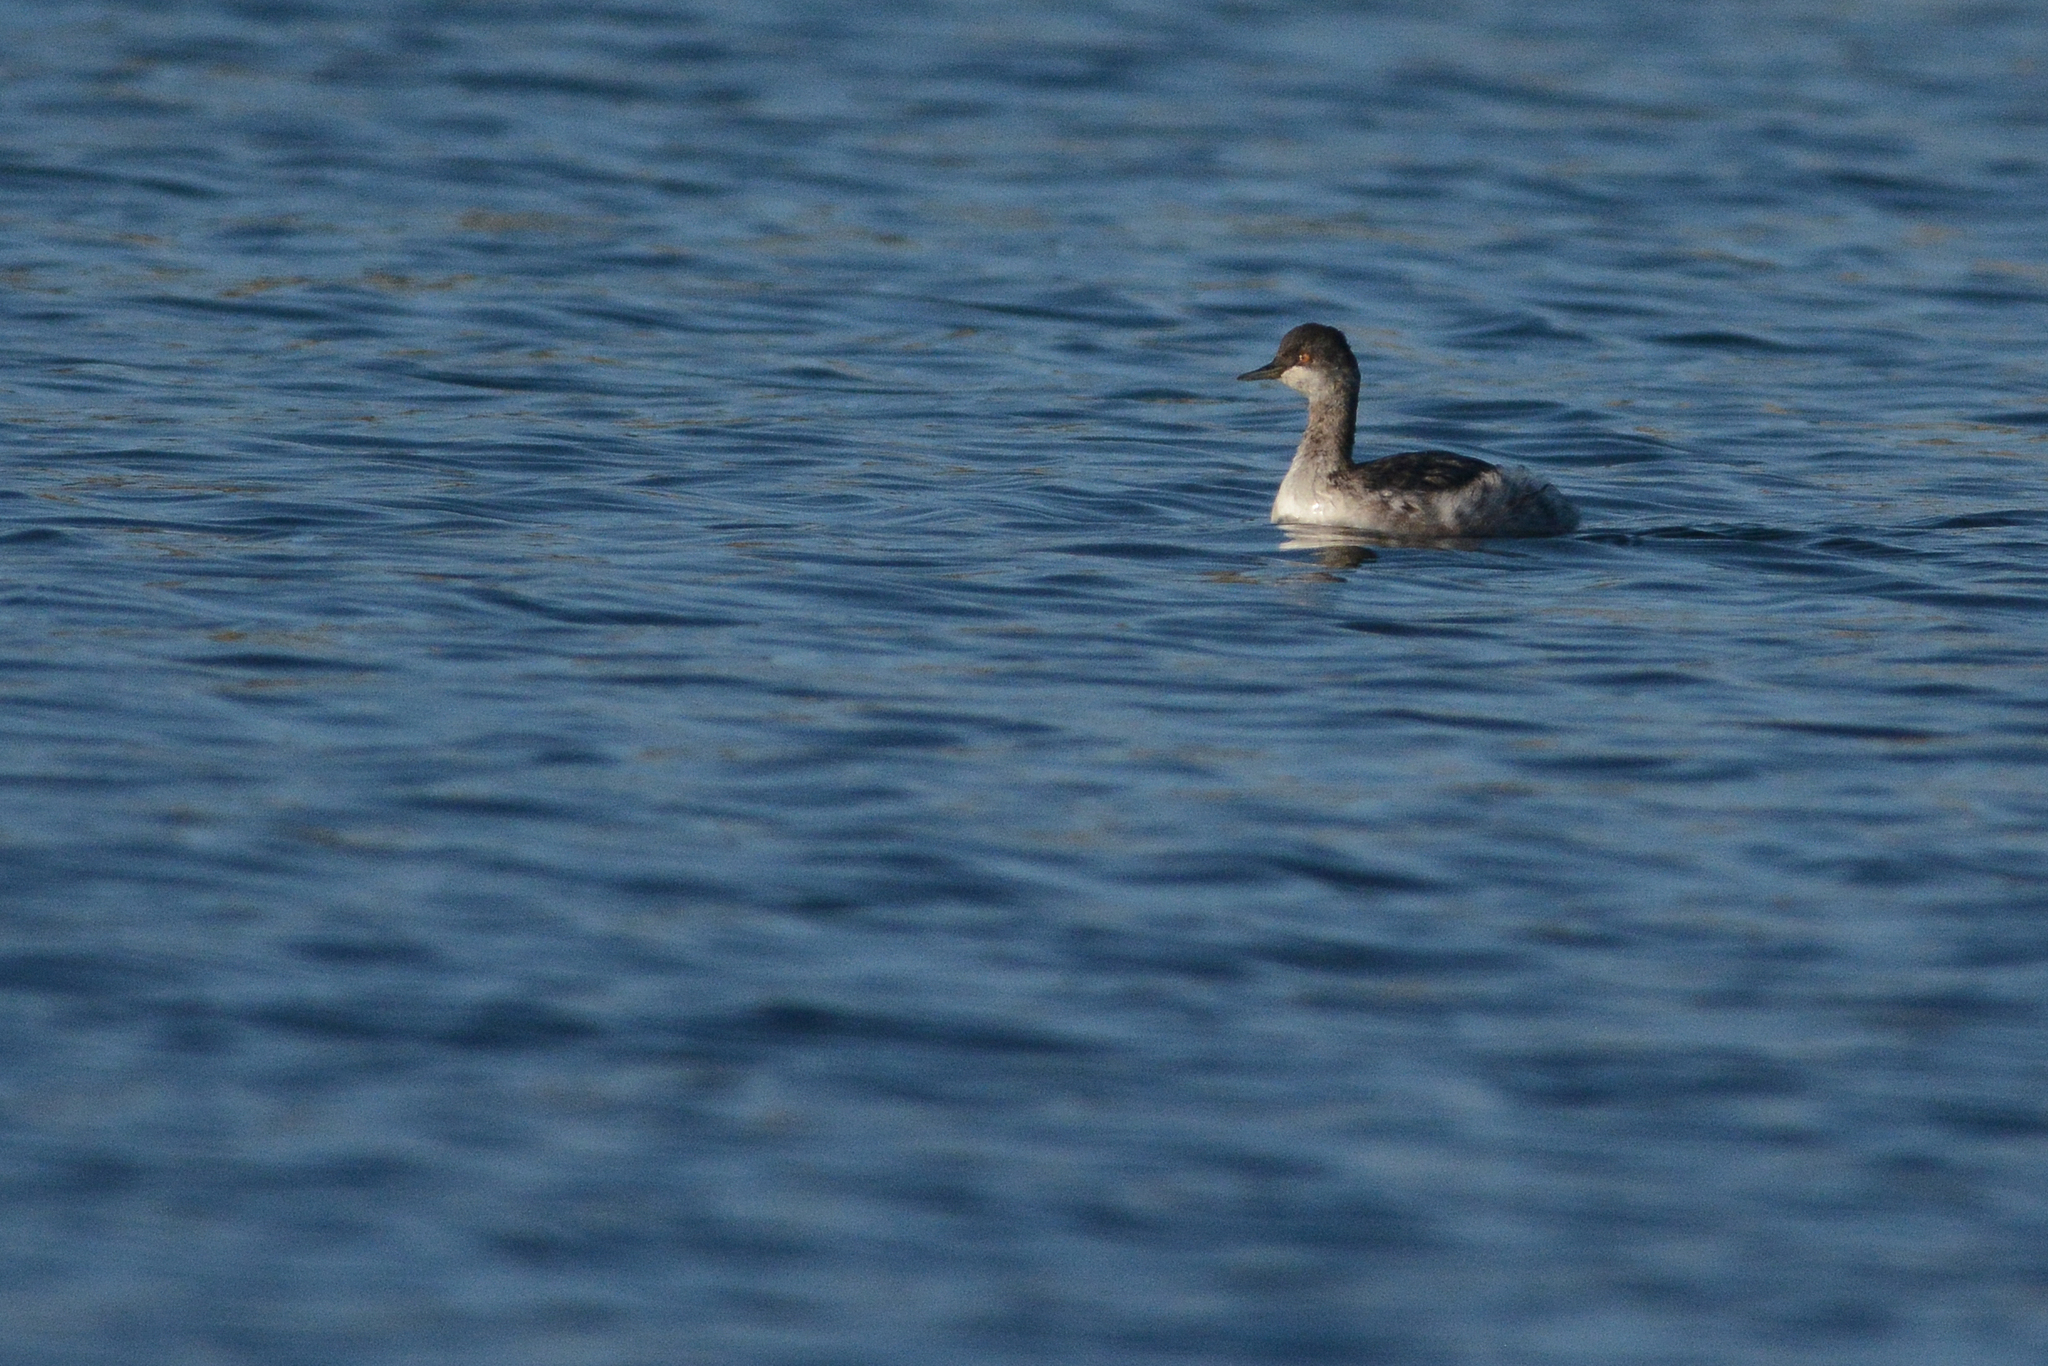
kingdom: Animalia
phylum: Chordata
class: Aves
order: Podicipediformes
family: Podicipedidae
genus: Podiceps
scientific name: Podiceps nigricollis
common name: Black-necked grebe
